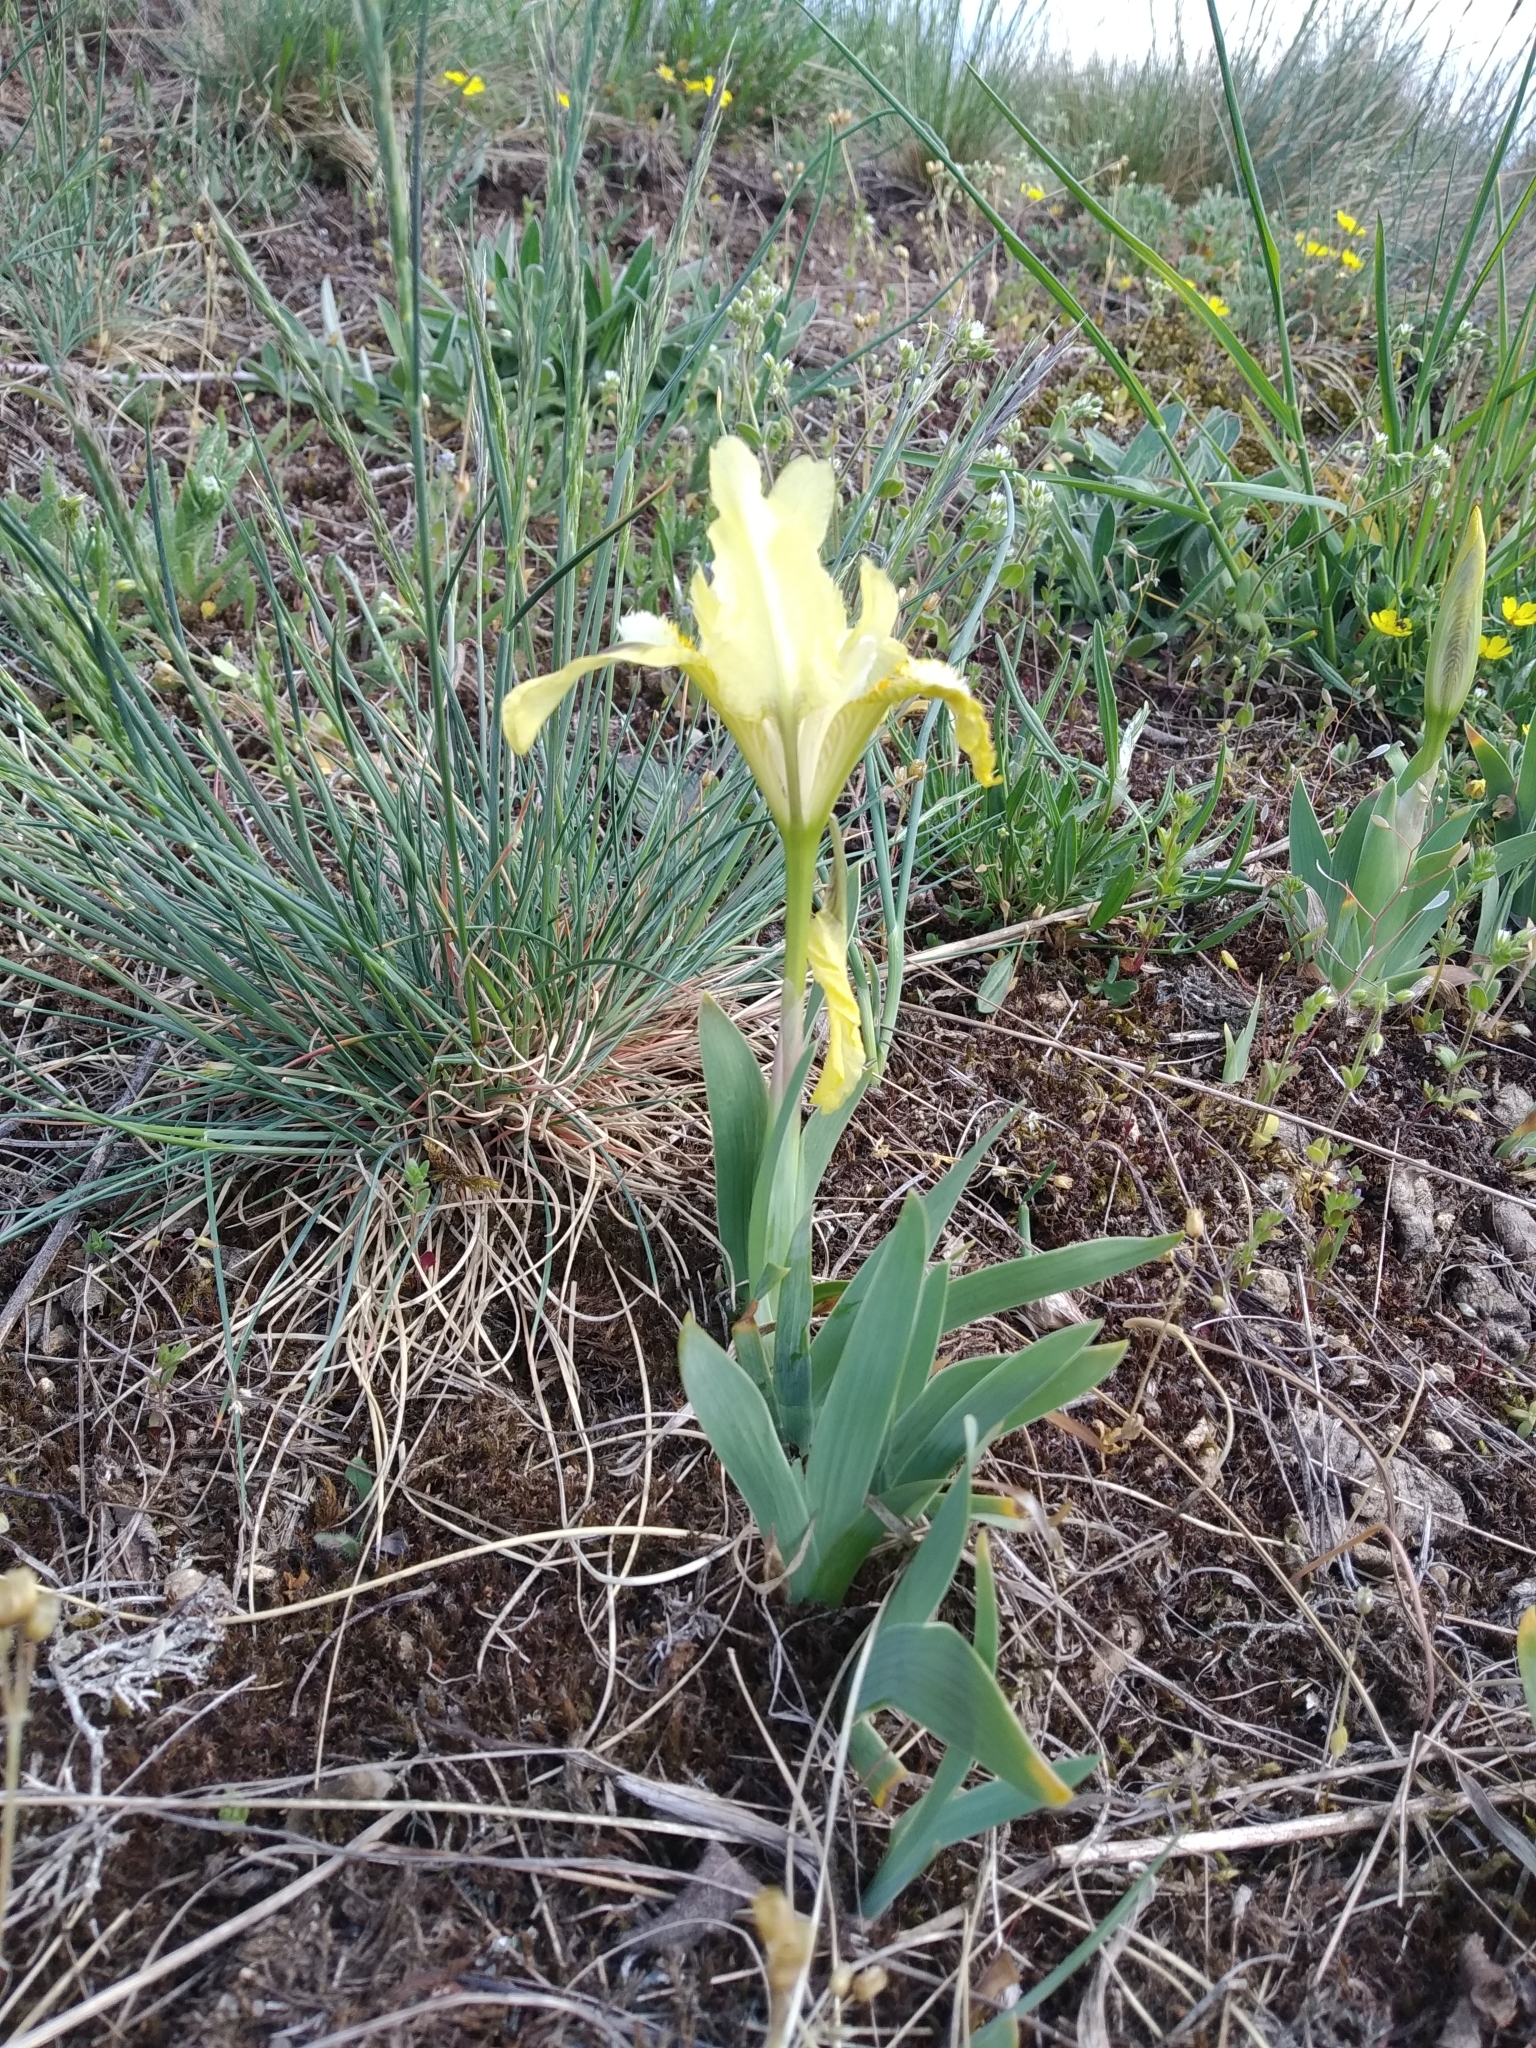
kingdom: Plantae
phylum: Tracheophyta
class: Liliopsida
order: Asparagales
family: Iridaceae
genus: Iris
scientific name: Iris pumila
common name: Dwarf iris
